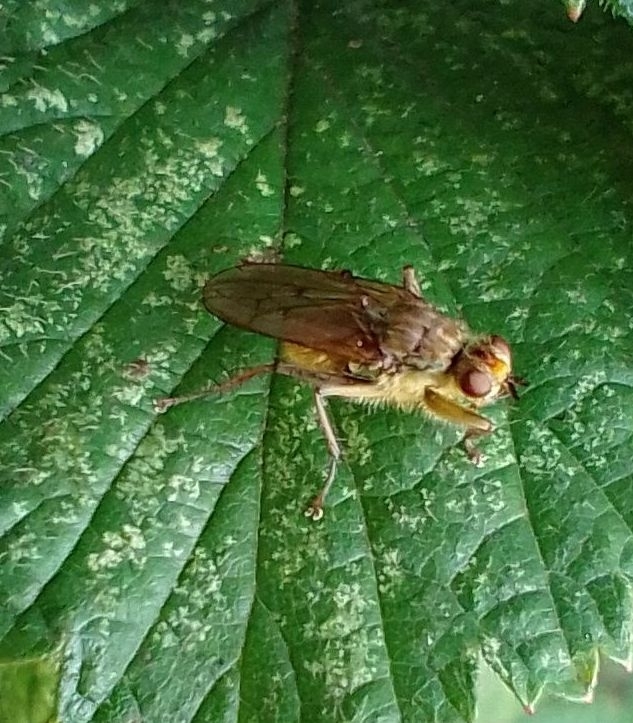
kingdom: Animalia
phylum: Arthropoda
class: Insecta
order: Diptera
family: Scathophagidae
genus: Scathophaga
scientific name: Scathophaga stercoraria
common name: Yellow dung fly
